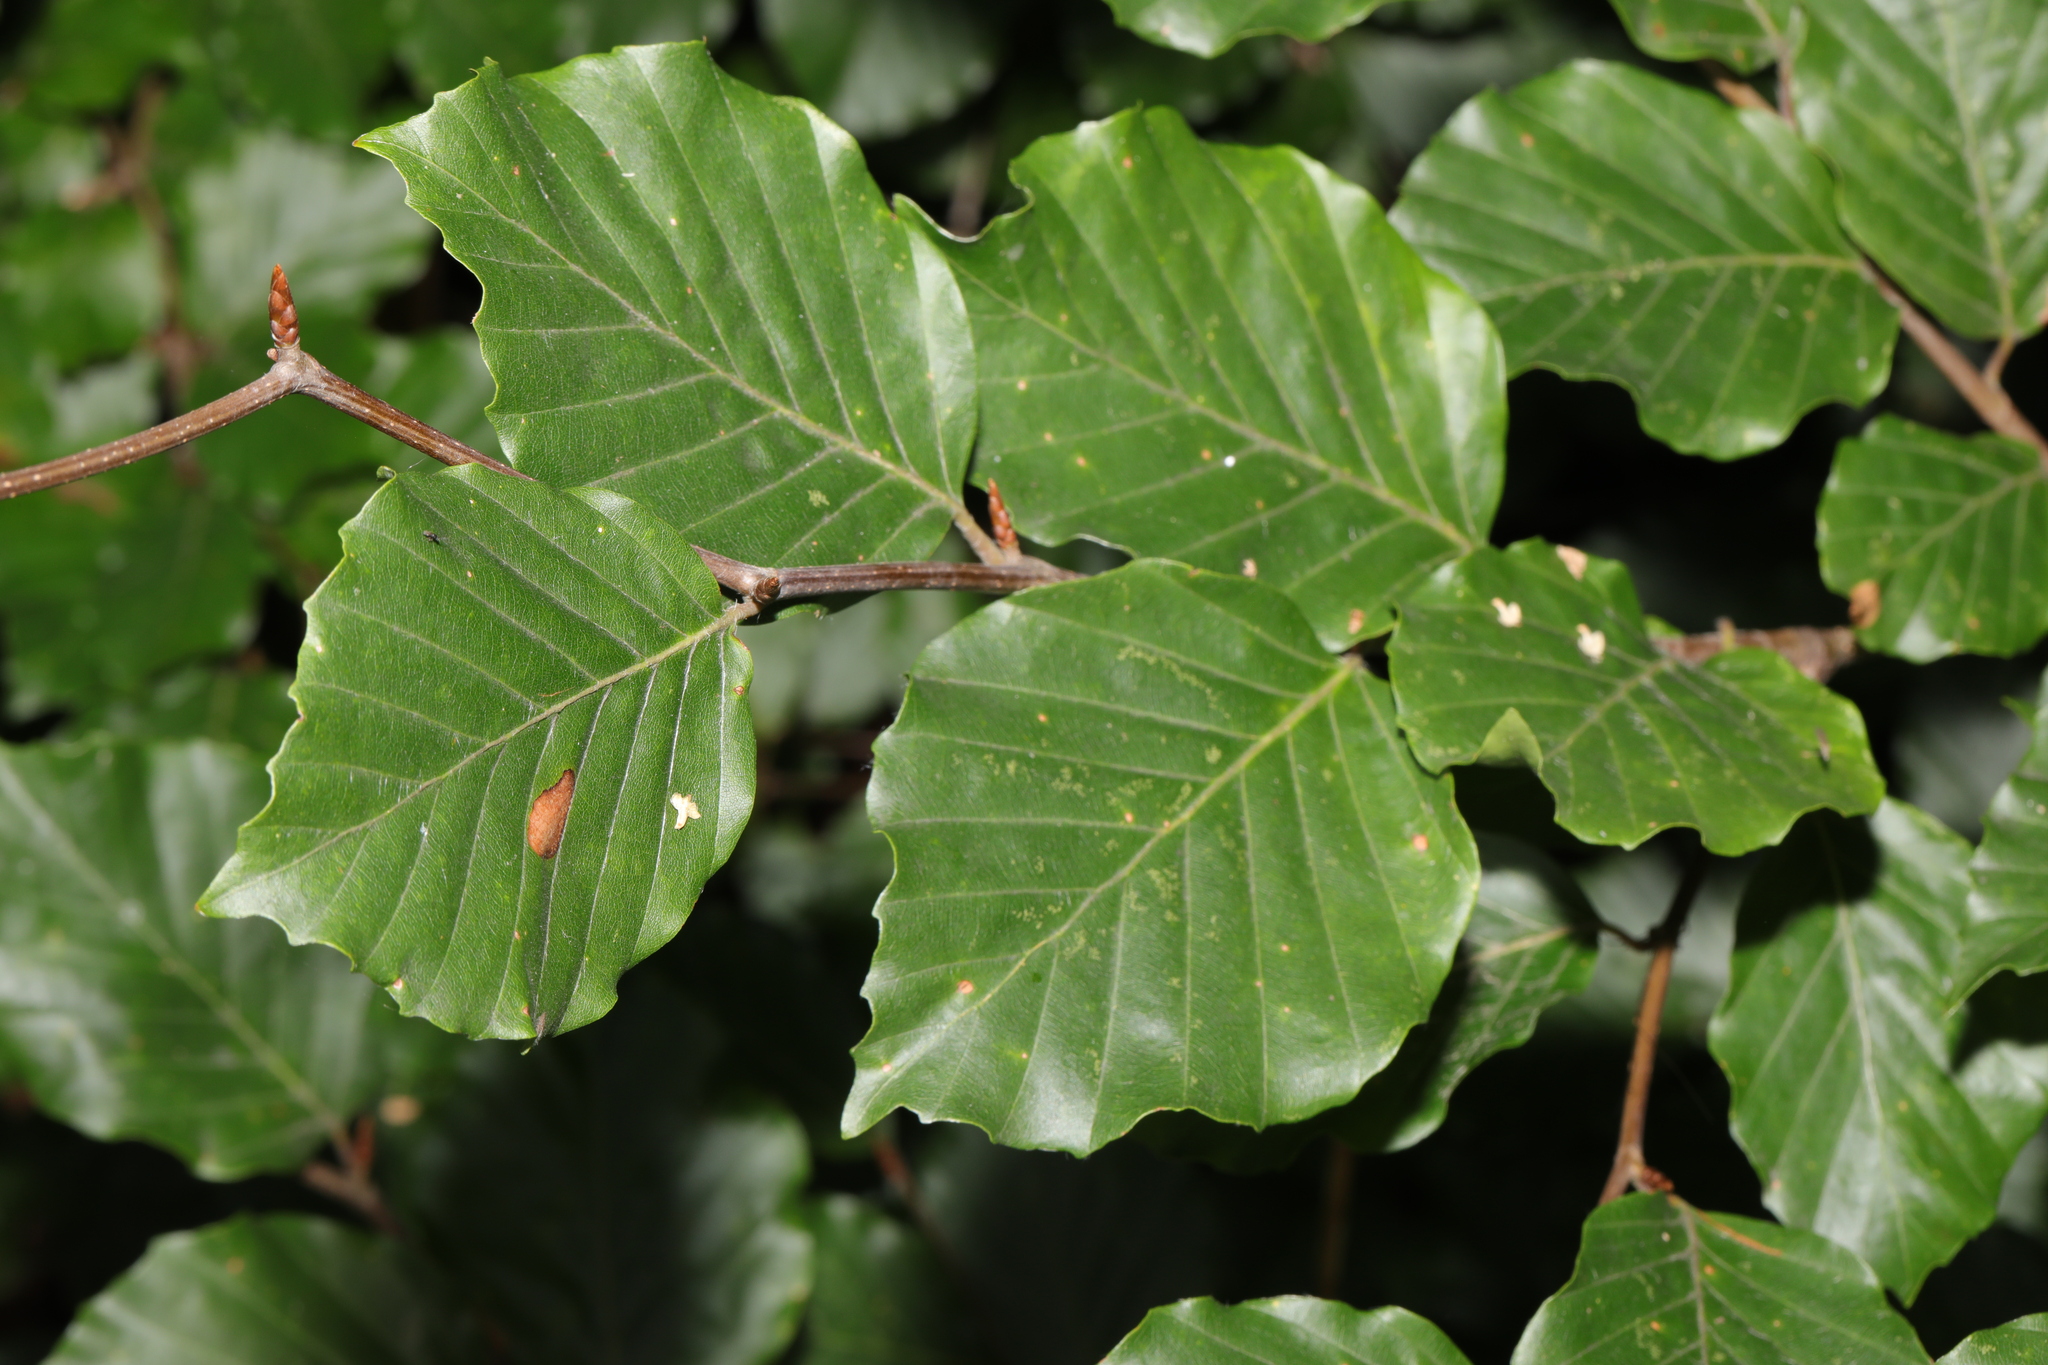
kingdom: Plantae
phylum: Tracheophyta
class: Magnoliopsida
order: Fagales
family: Fagaceae
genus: Fagus
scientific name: Fagus sylvatica
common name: Beech
